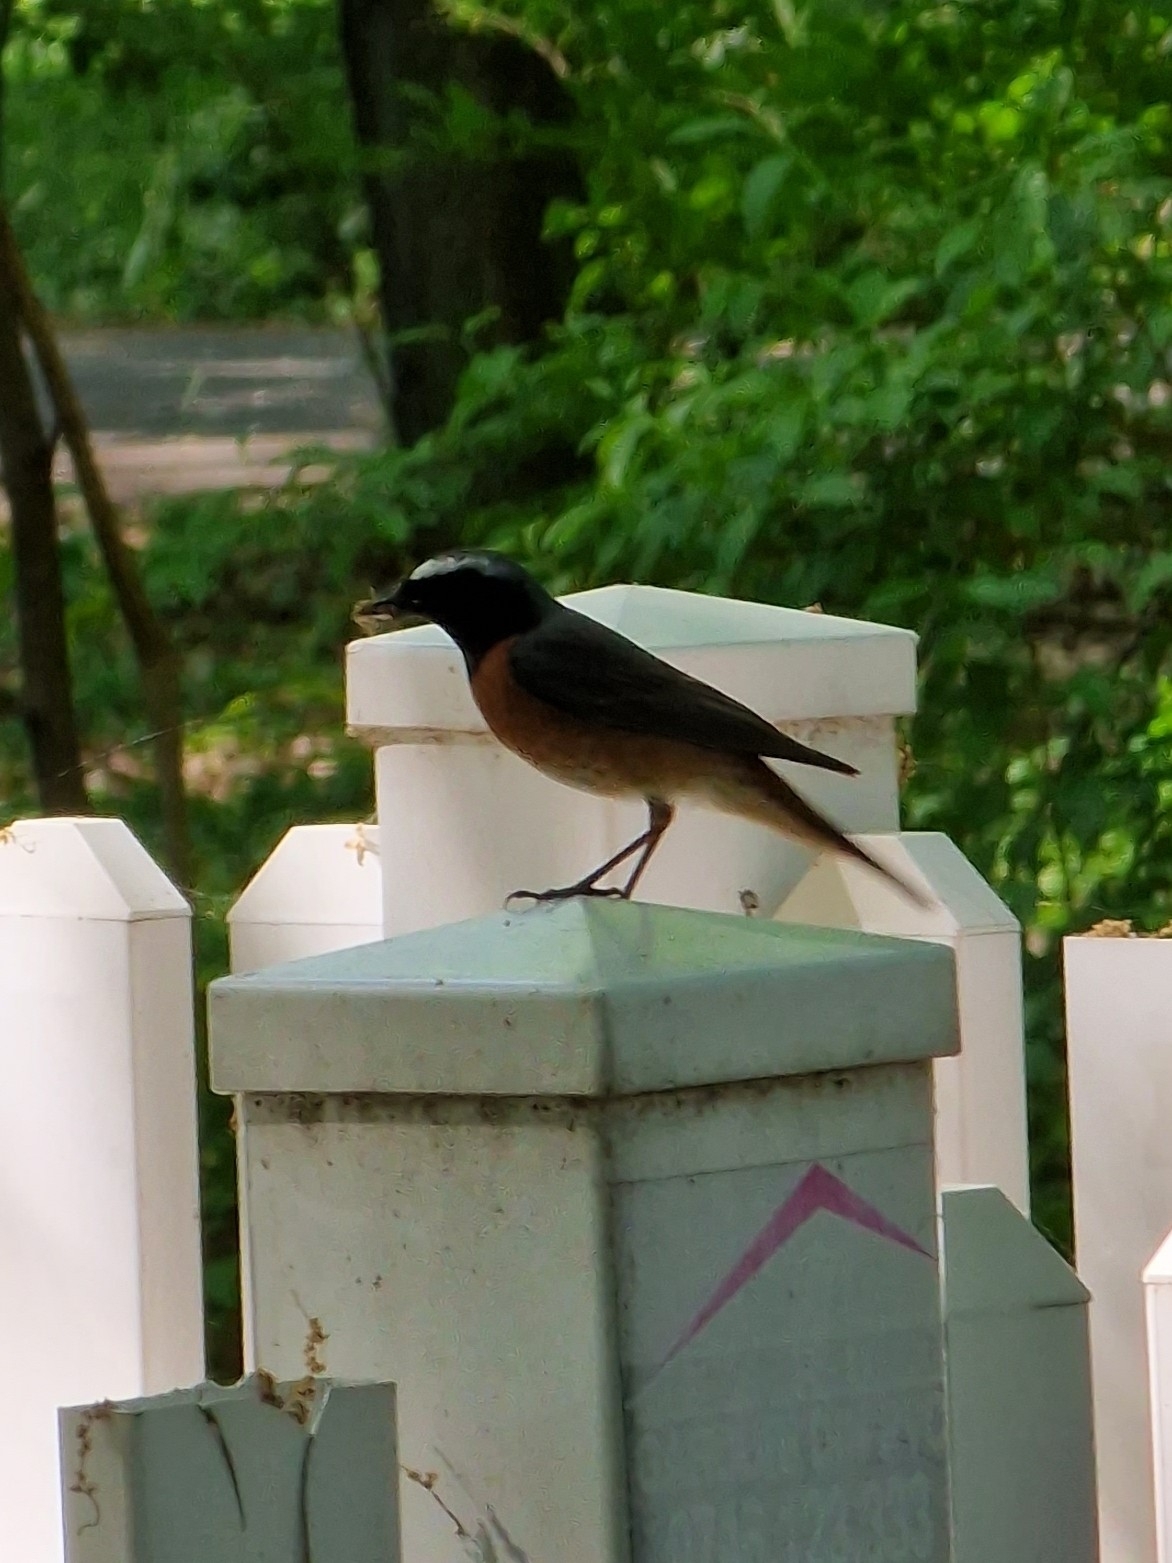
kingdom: Animalia
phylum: Chordata
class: Aves
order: Passeriformes
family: Muscicapidae
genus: Phoenicurus
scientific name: Phoenicurus phoenicurus
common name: Common redstart
